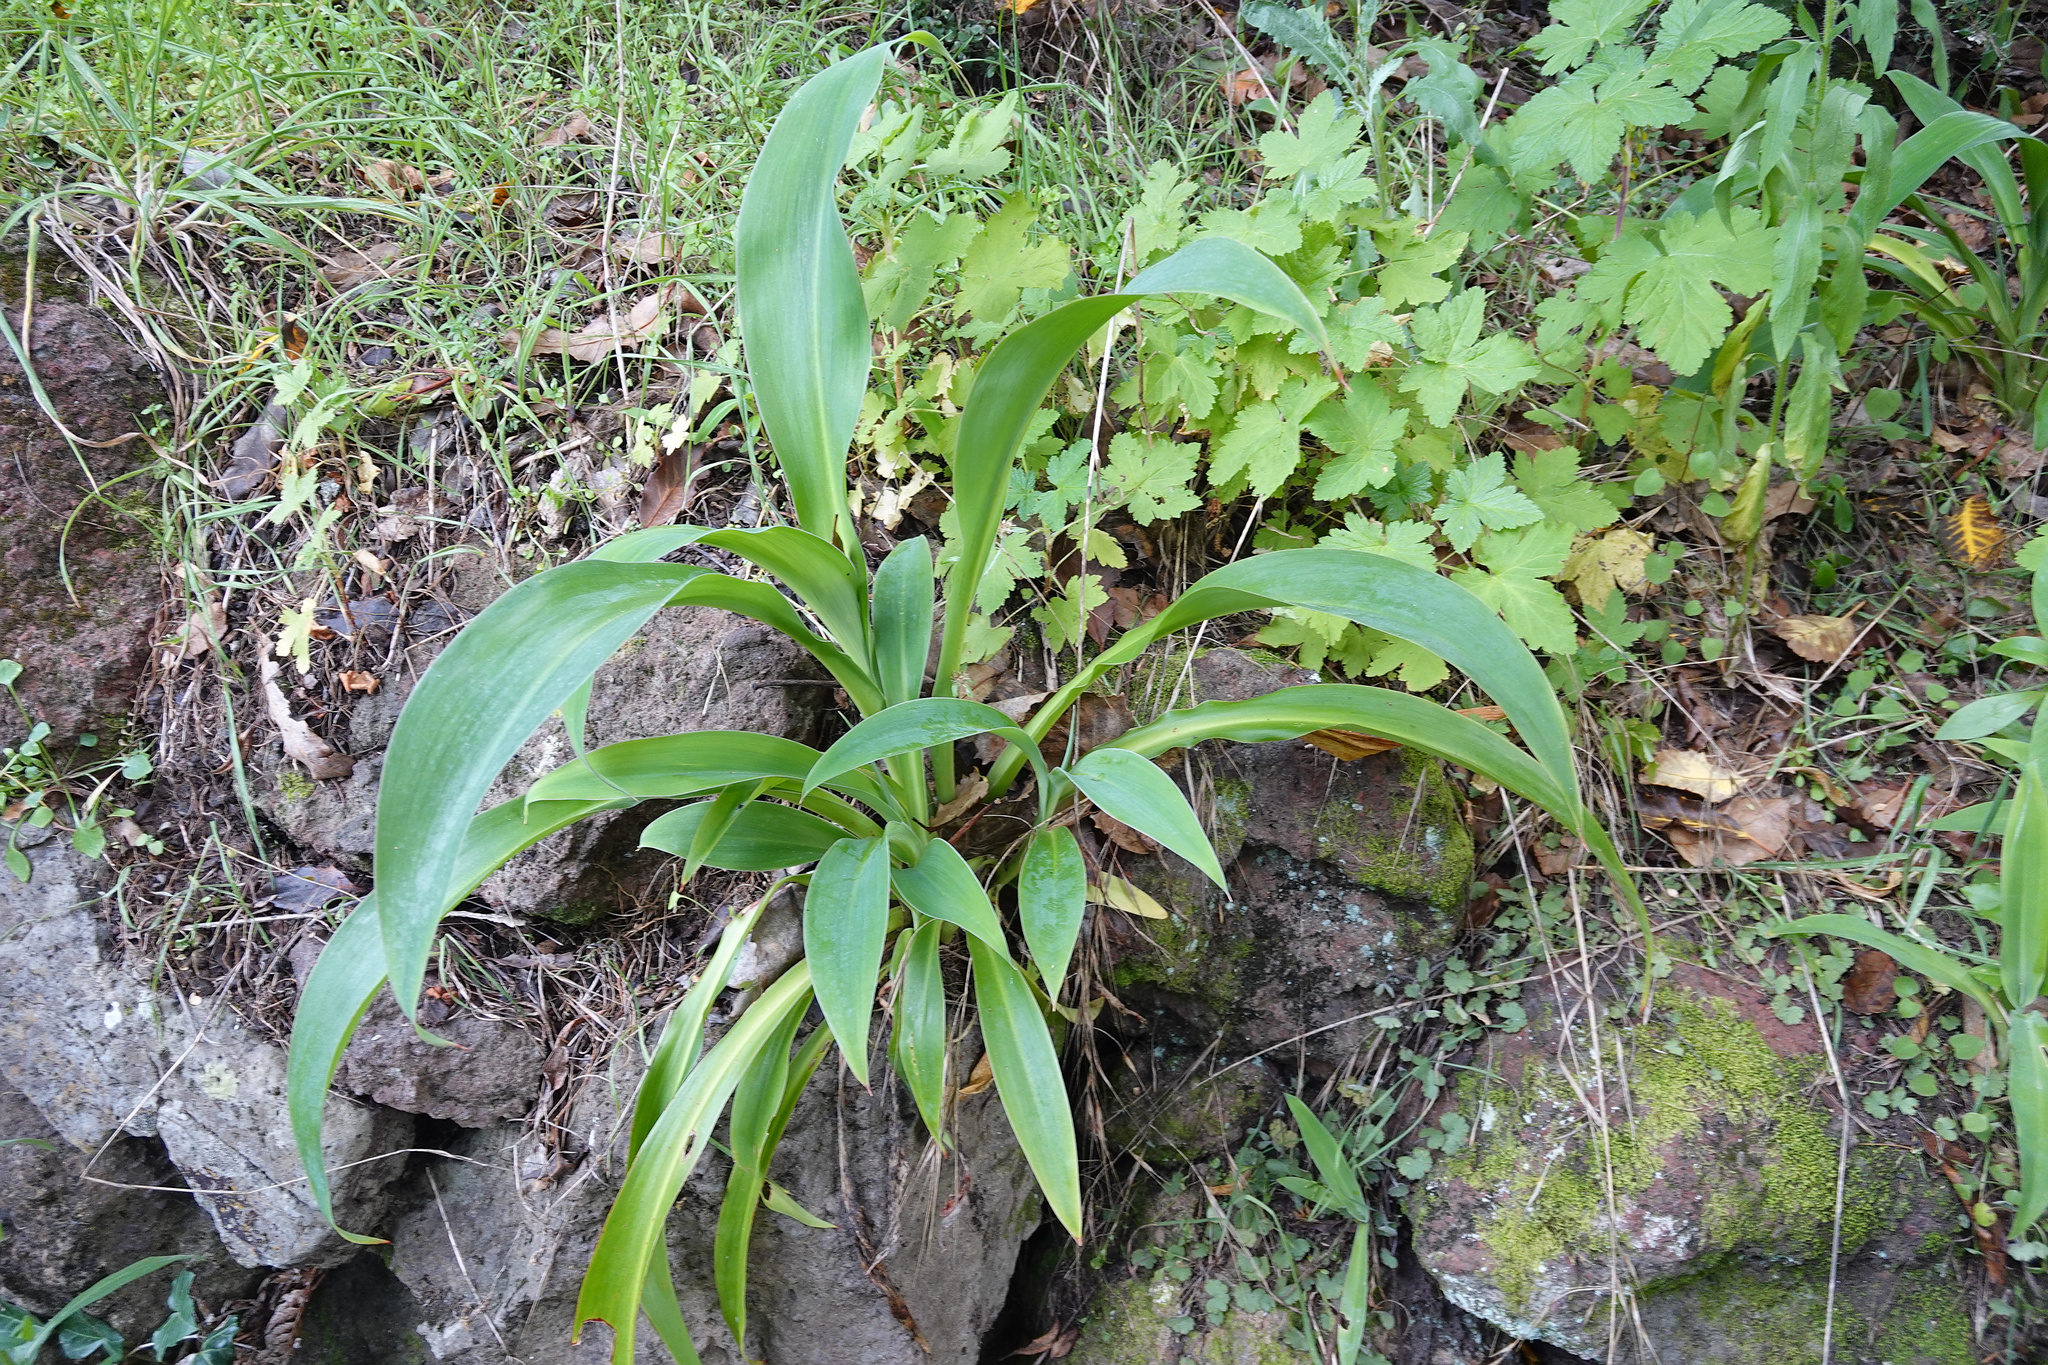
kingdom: Plantae
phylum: Tracheophyta
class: Liliopsida
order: Asparagales
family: Asparagaceae
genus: Arthropodium
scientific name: Arthropodium cirratum
